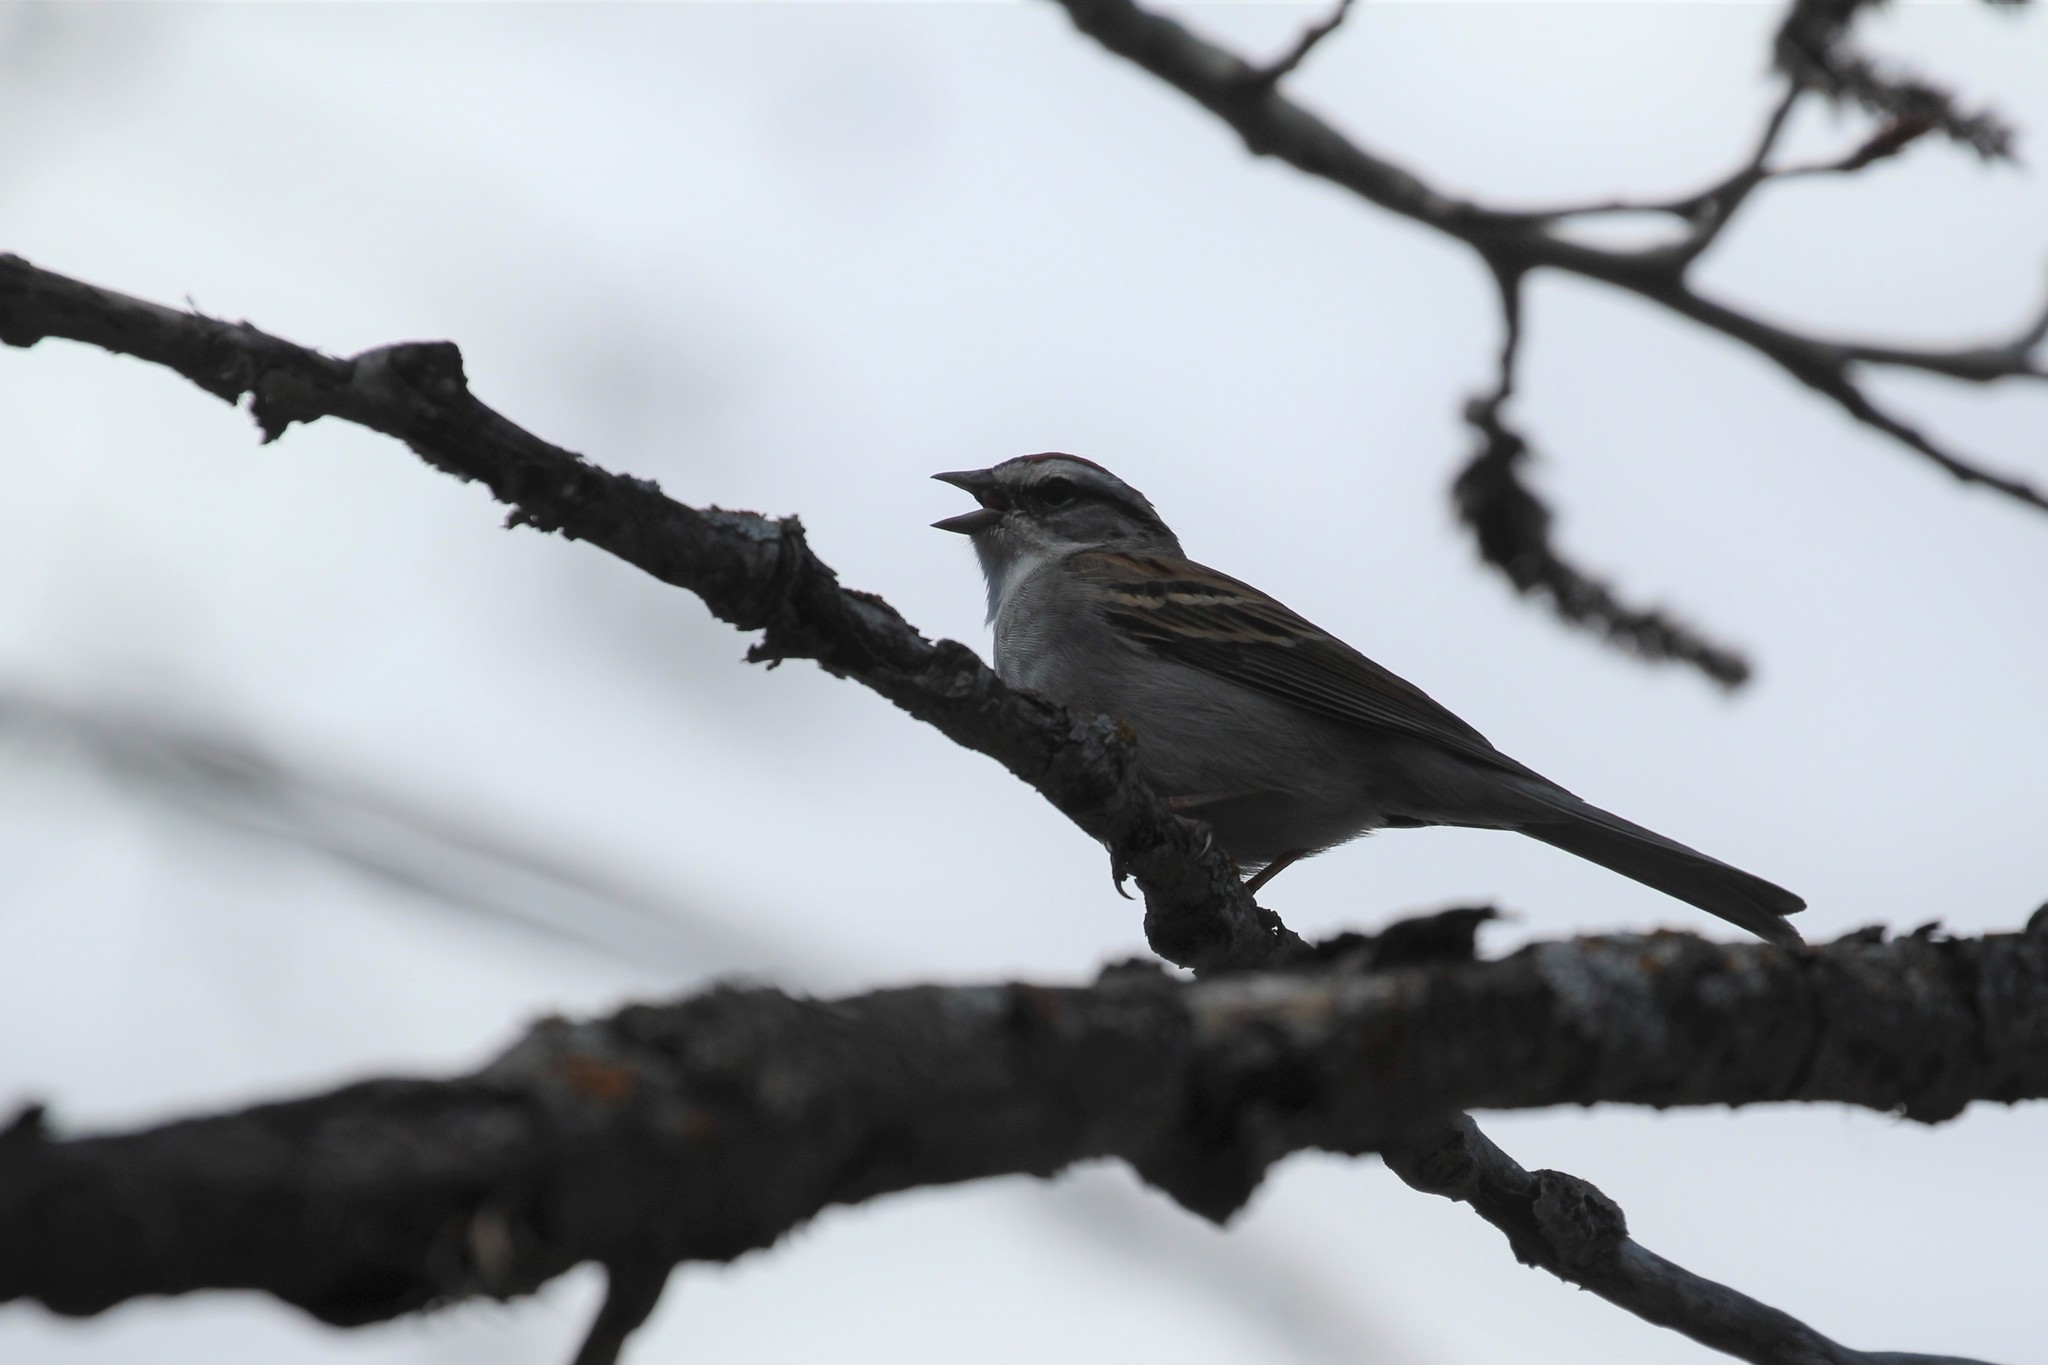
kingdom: Animalia
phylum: Chordata
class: Aves
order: Passeriformes
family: Passerellidae
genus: Spizella
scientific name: Spizella passerina
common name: Chipping sparrow
